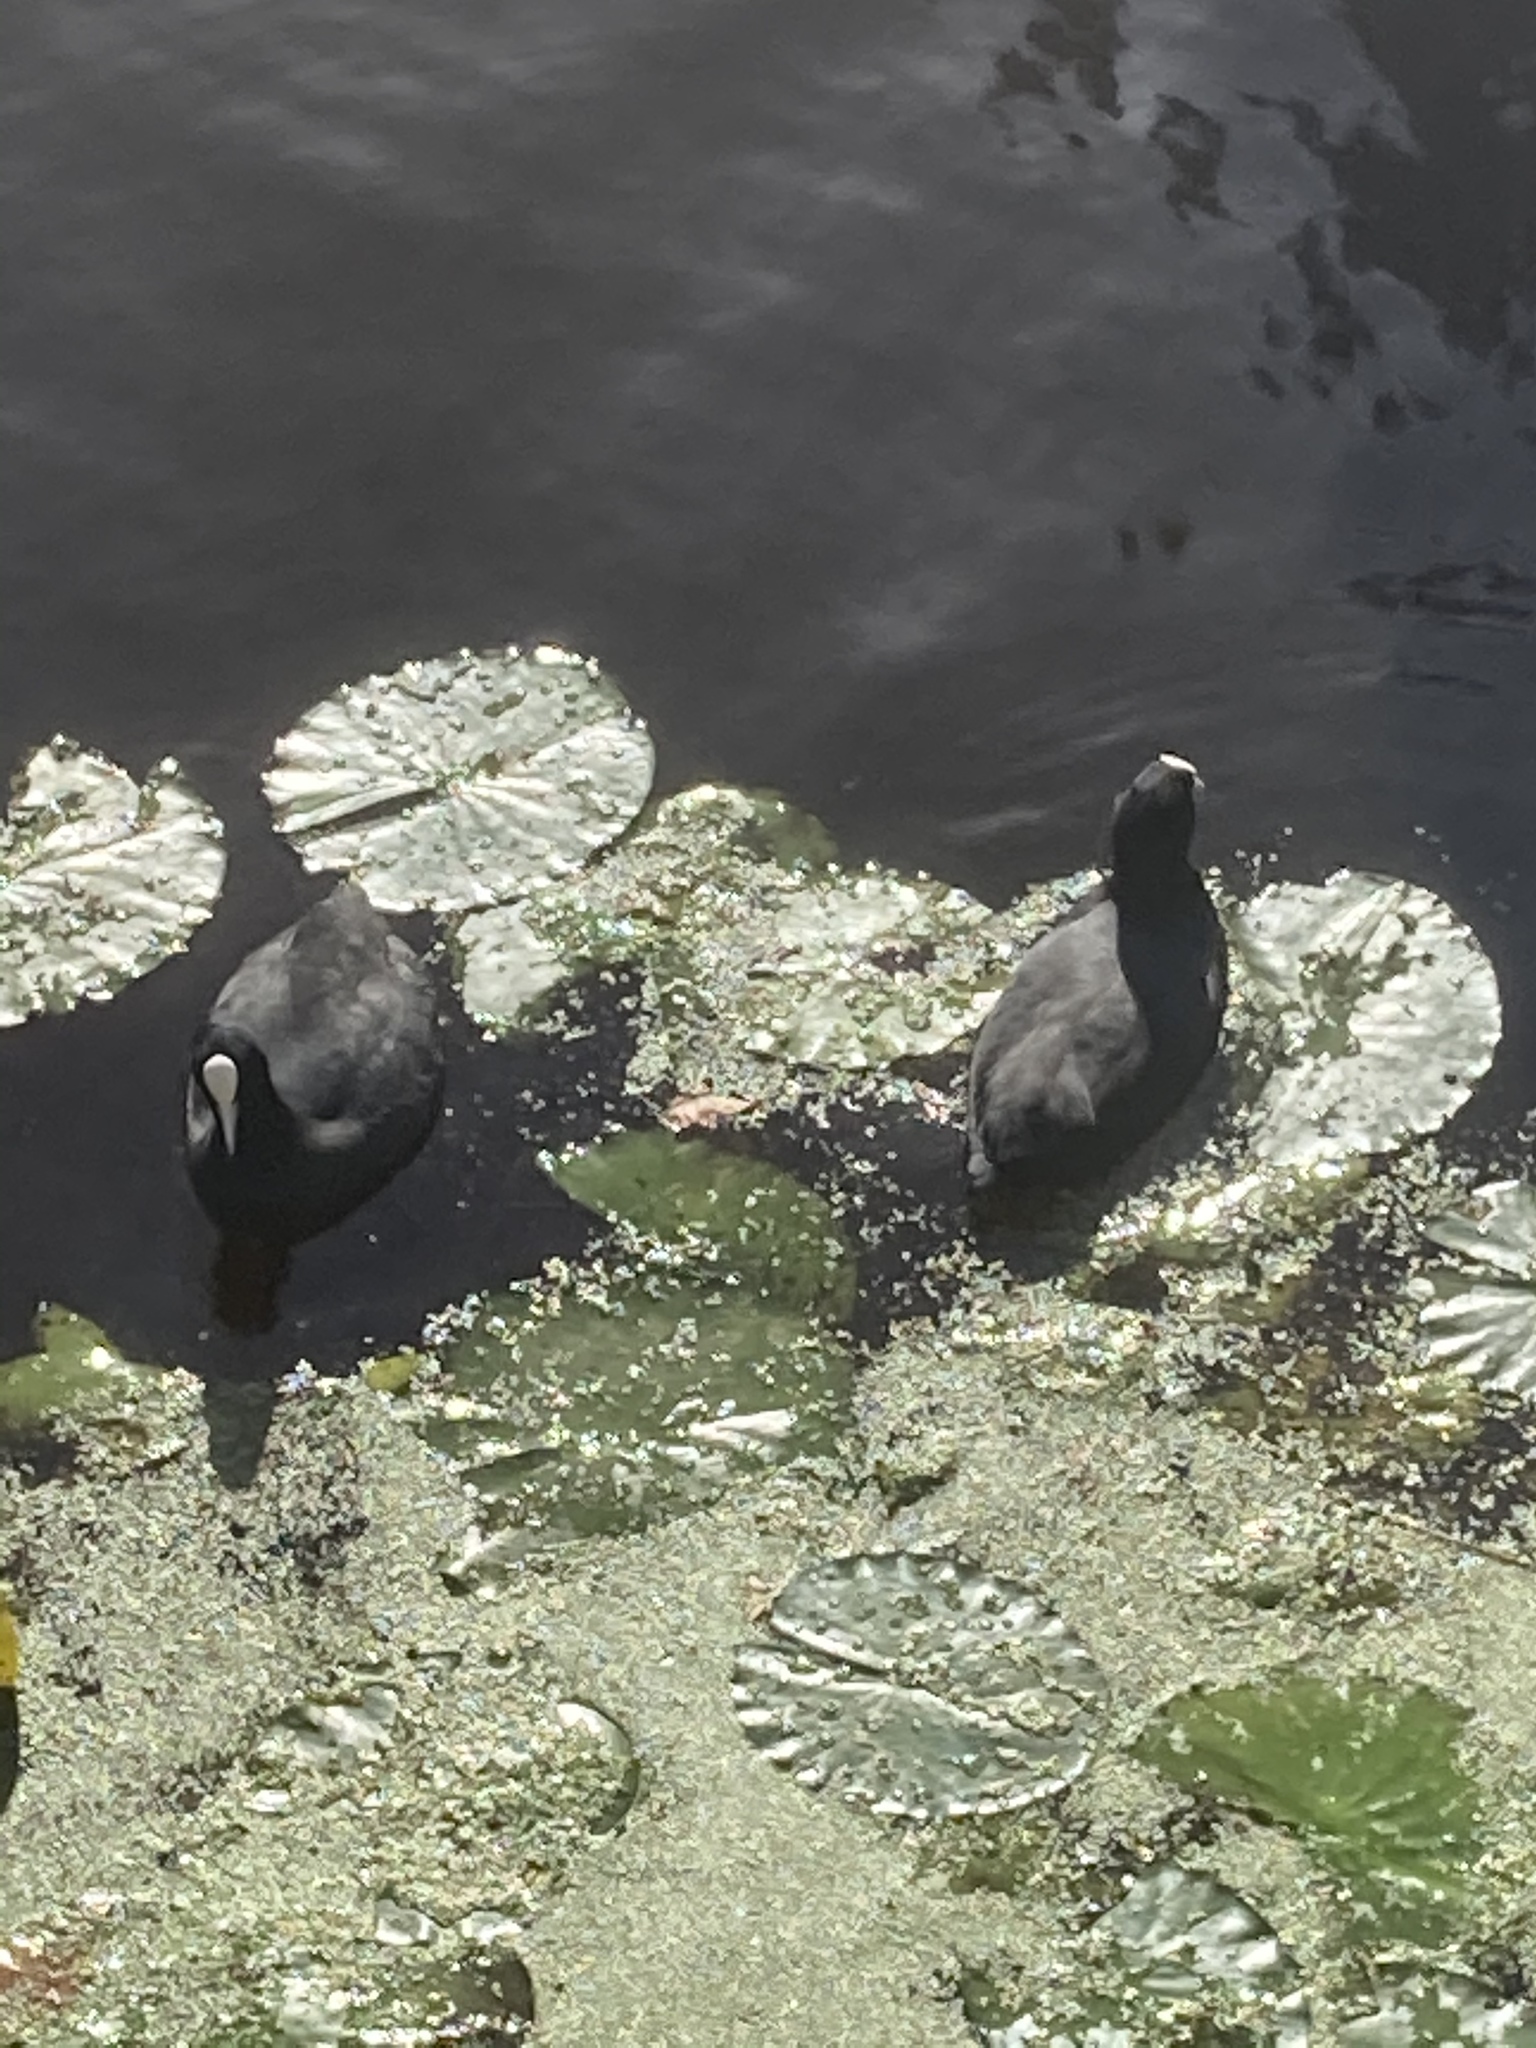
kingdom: Animalia
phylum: Chordata
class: Aves
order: Gruiformes
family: Rallidae
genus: Fulica
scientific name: Fulica atra
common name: Eurasian coot
